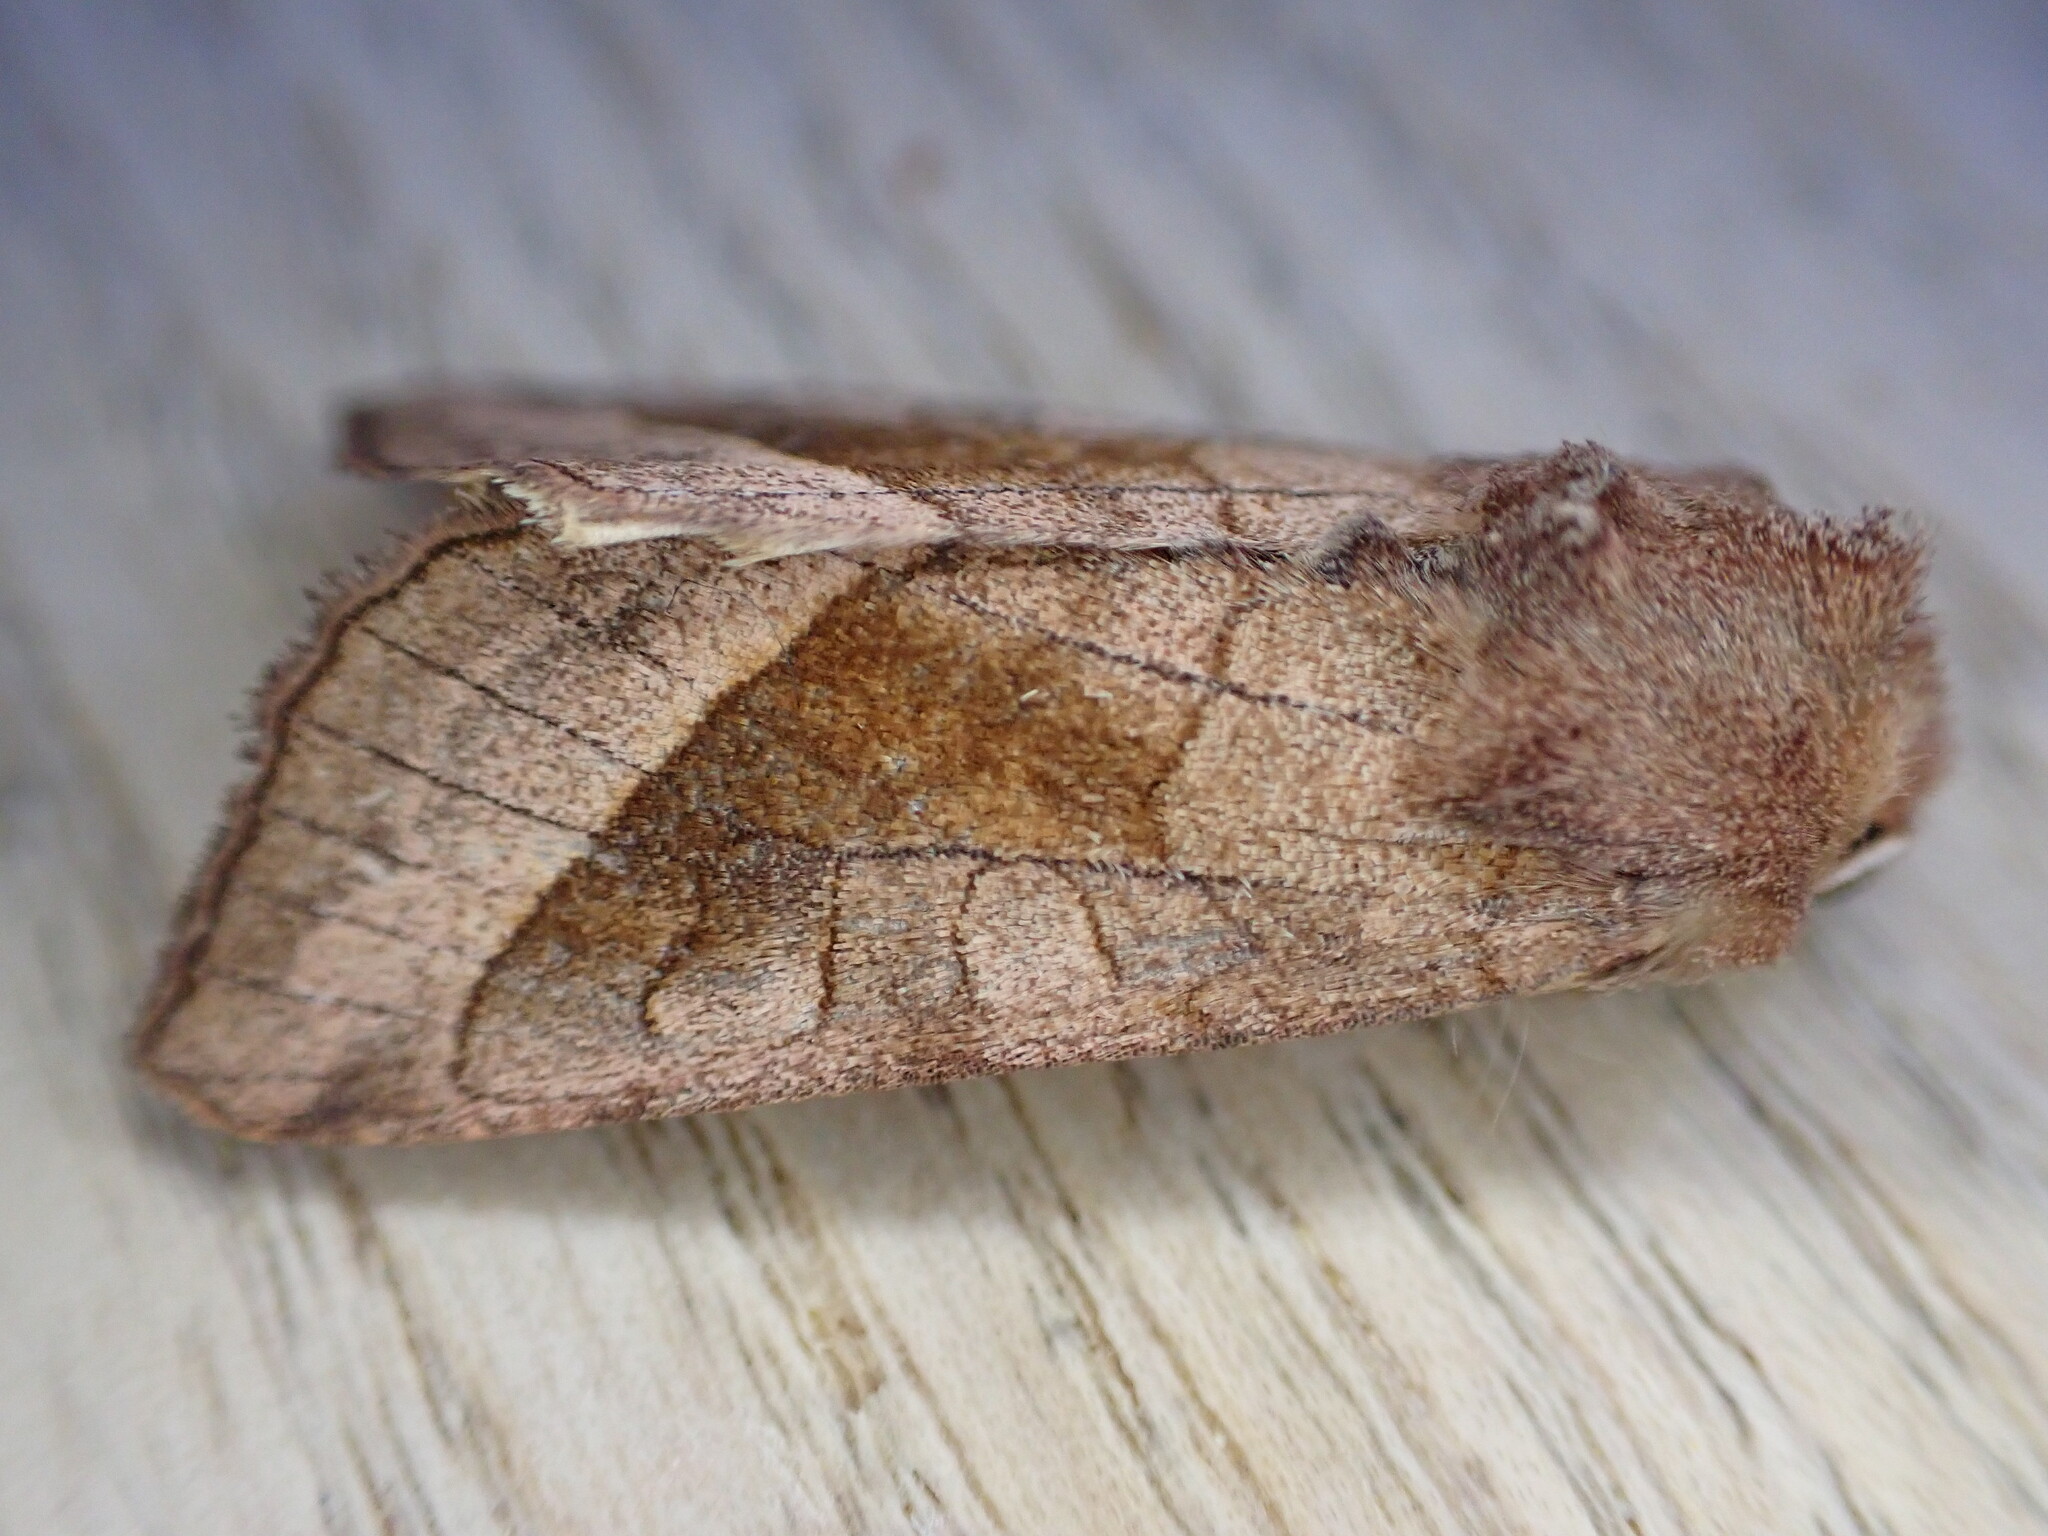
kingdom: Animalia
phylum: Arthropoda
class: Insecta
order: Lepidoptera
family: Noctuidae
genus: Hydraecia
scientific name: Hydraecia micacea
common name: Rosy rustic
